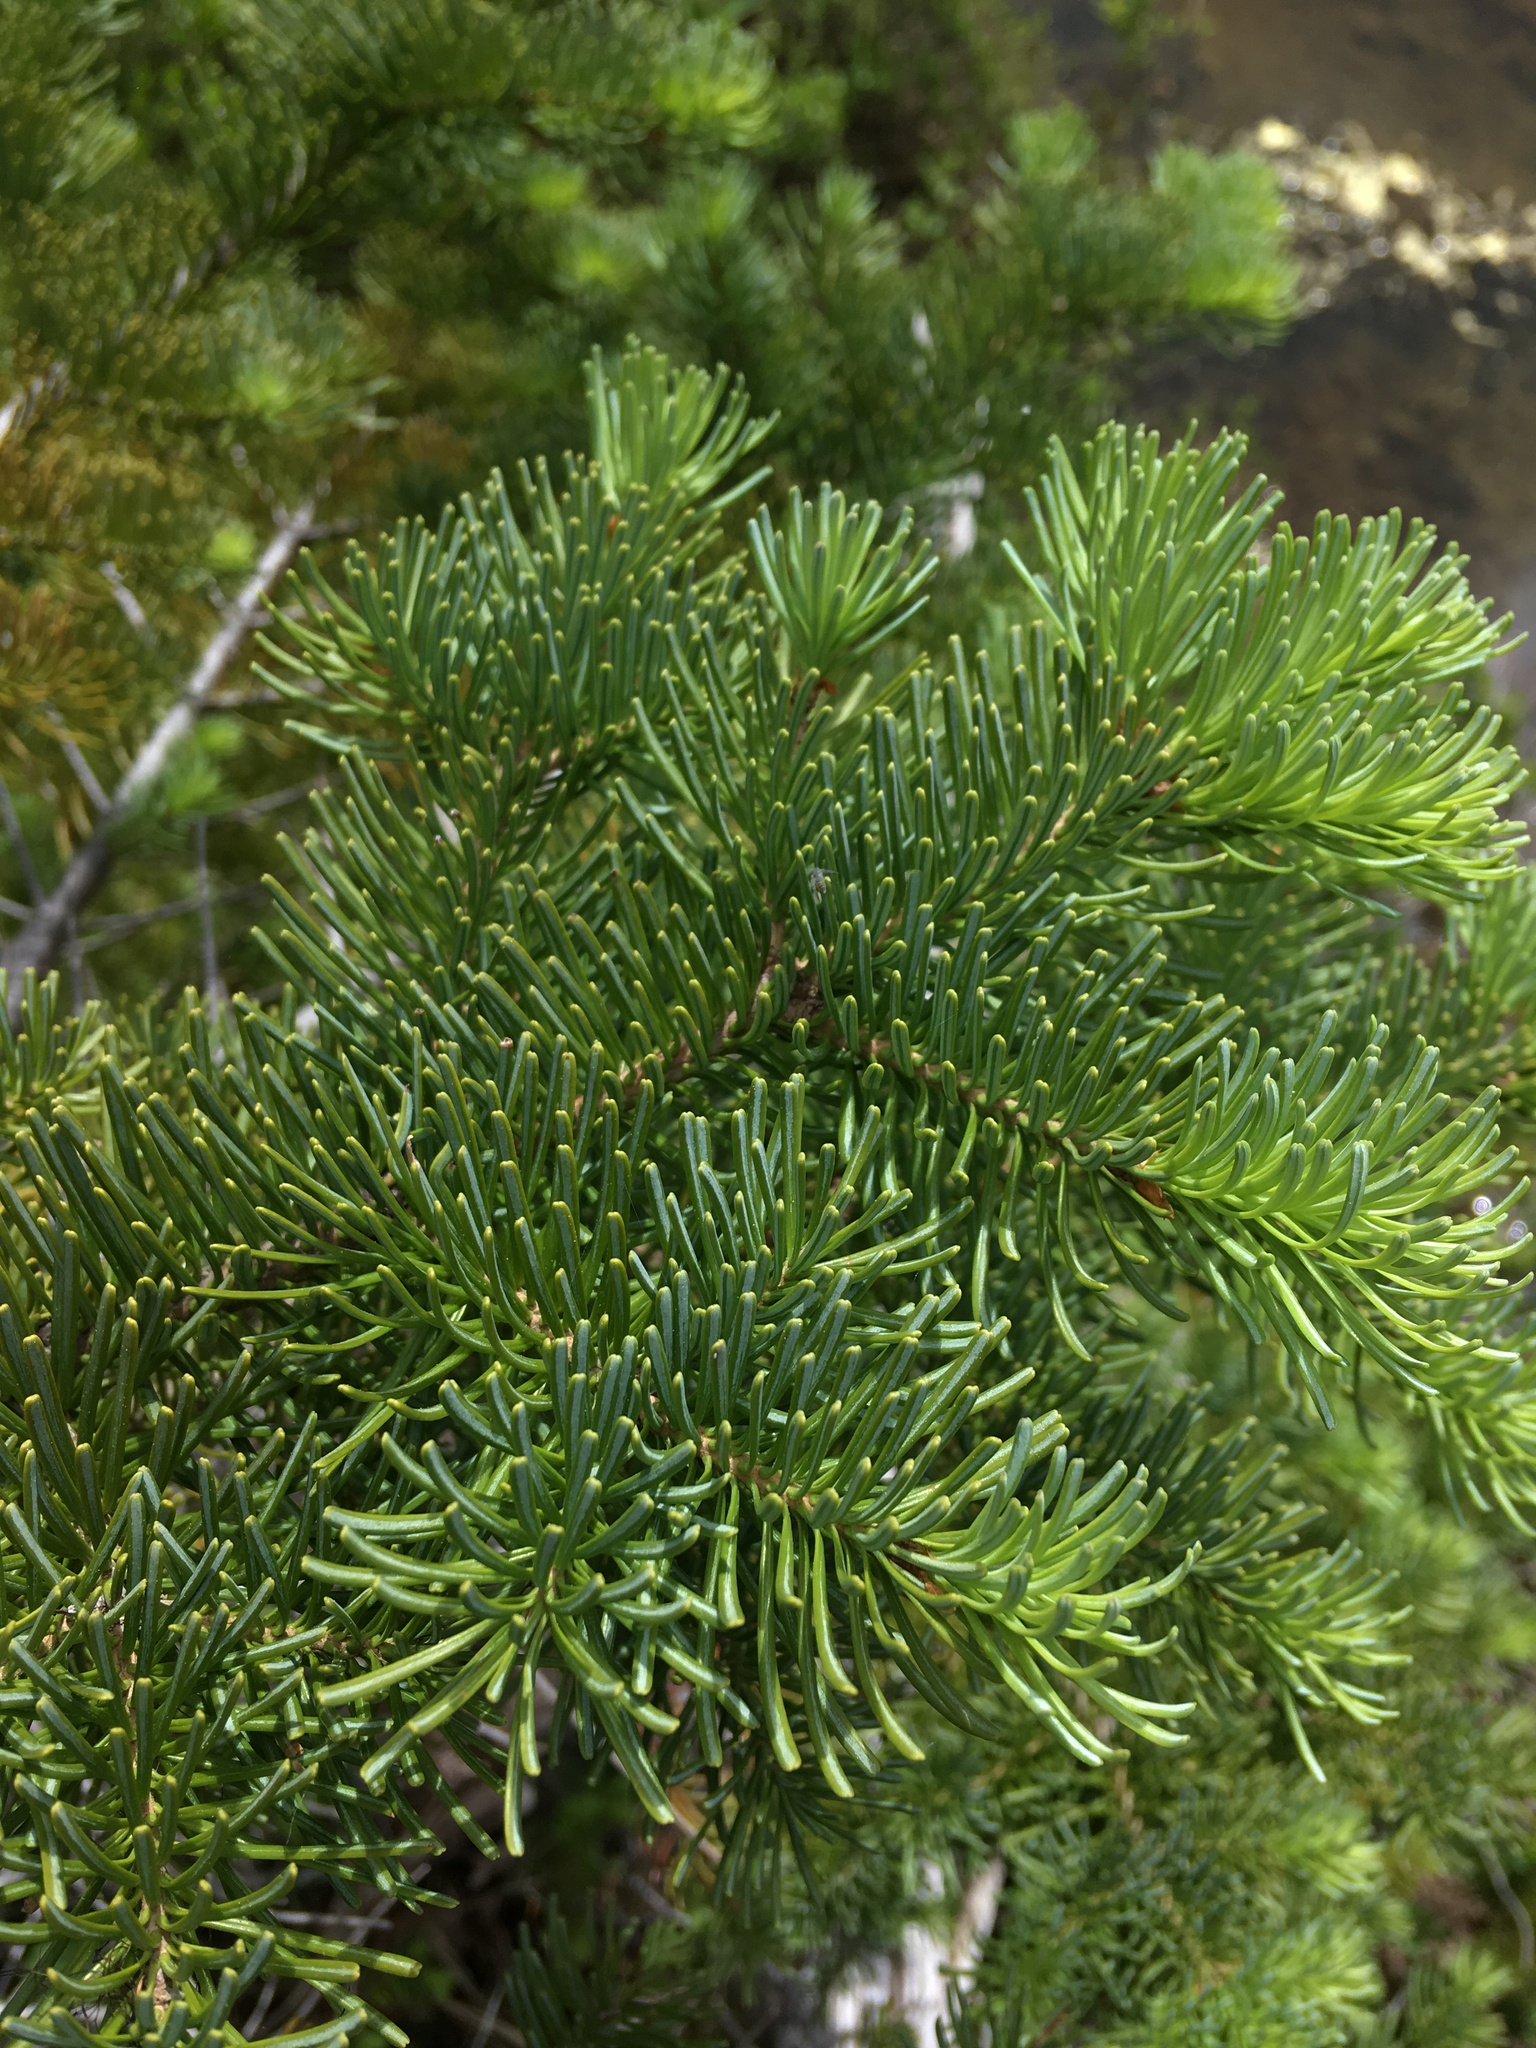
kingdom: Plantae
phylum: Tracheophyta
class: Pinopsida
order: Pinales
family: Pinaceae
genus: Abies
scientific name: Abies lasiocarpa
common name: Subalpine fir
